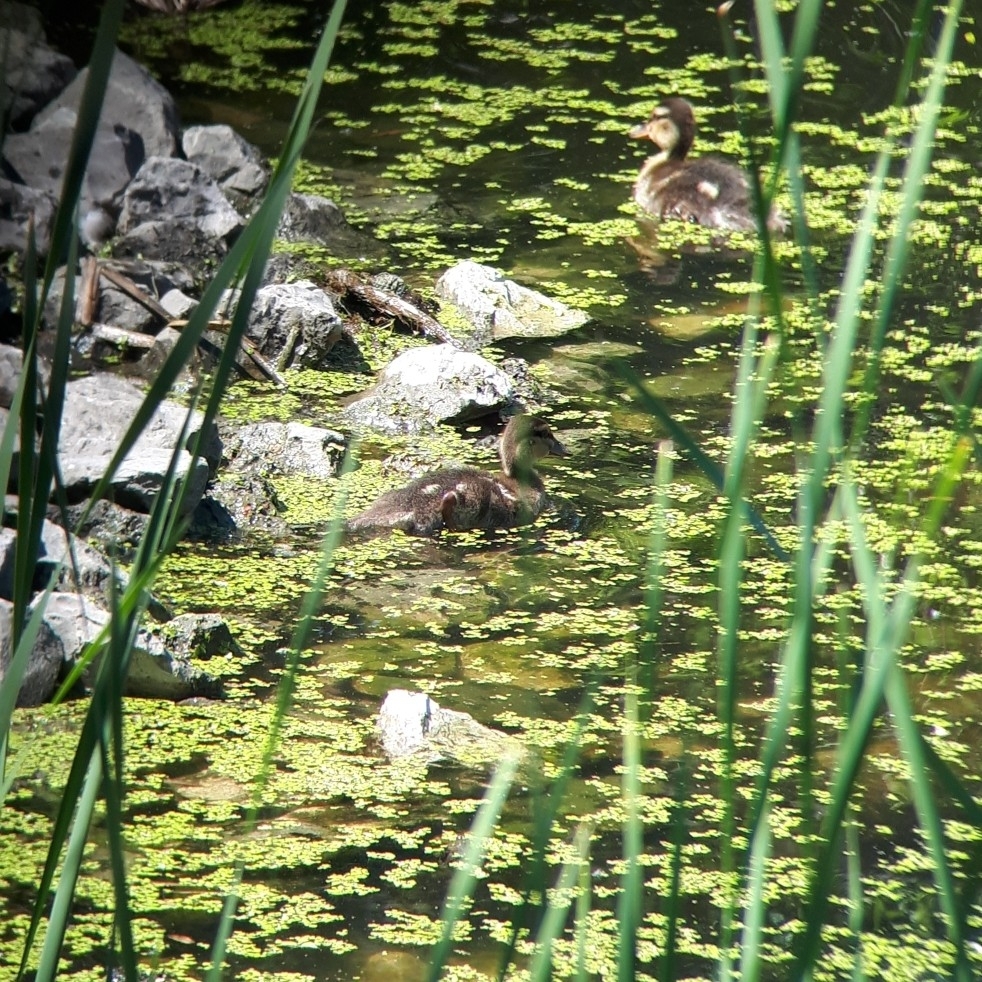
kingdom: Animalia
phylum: Chordata
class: Aves
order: Anseriformes
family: Anatidae
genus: Anas
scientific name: Anas platyrhynchos
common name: Mallard
